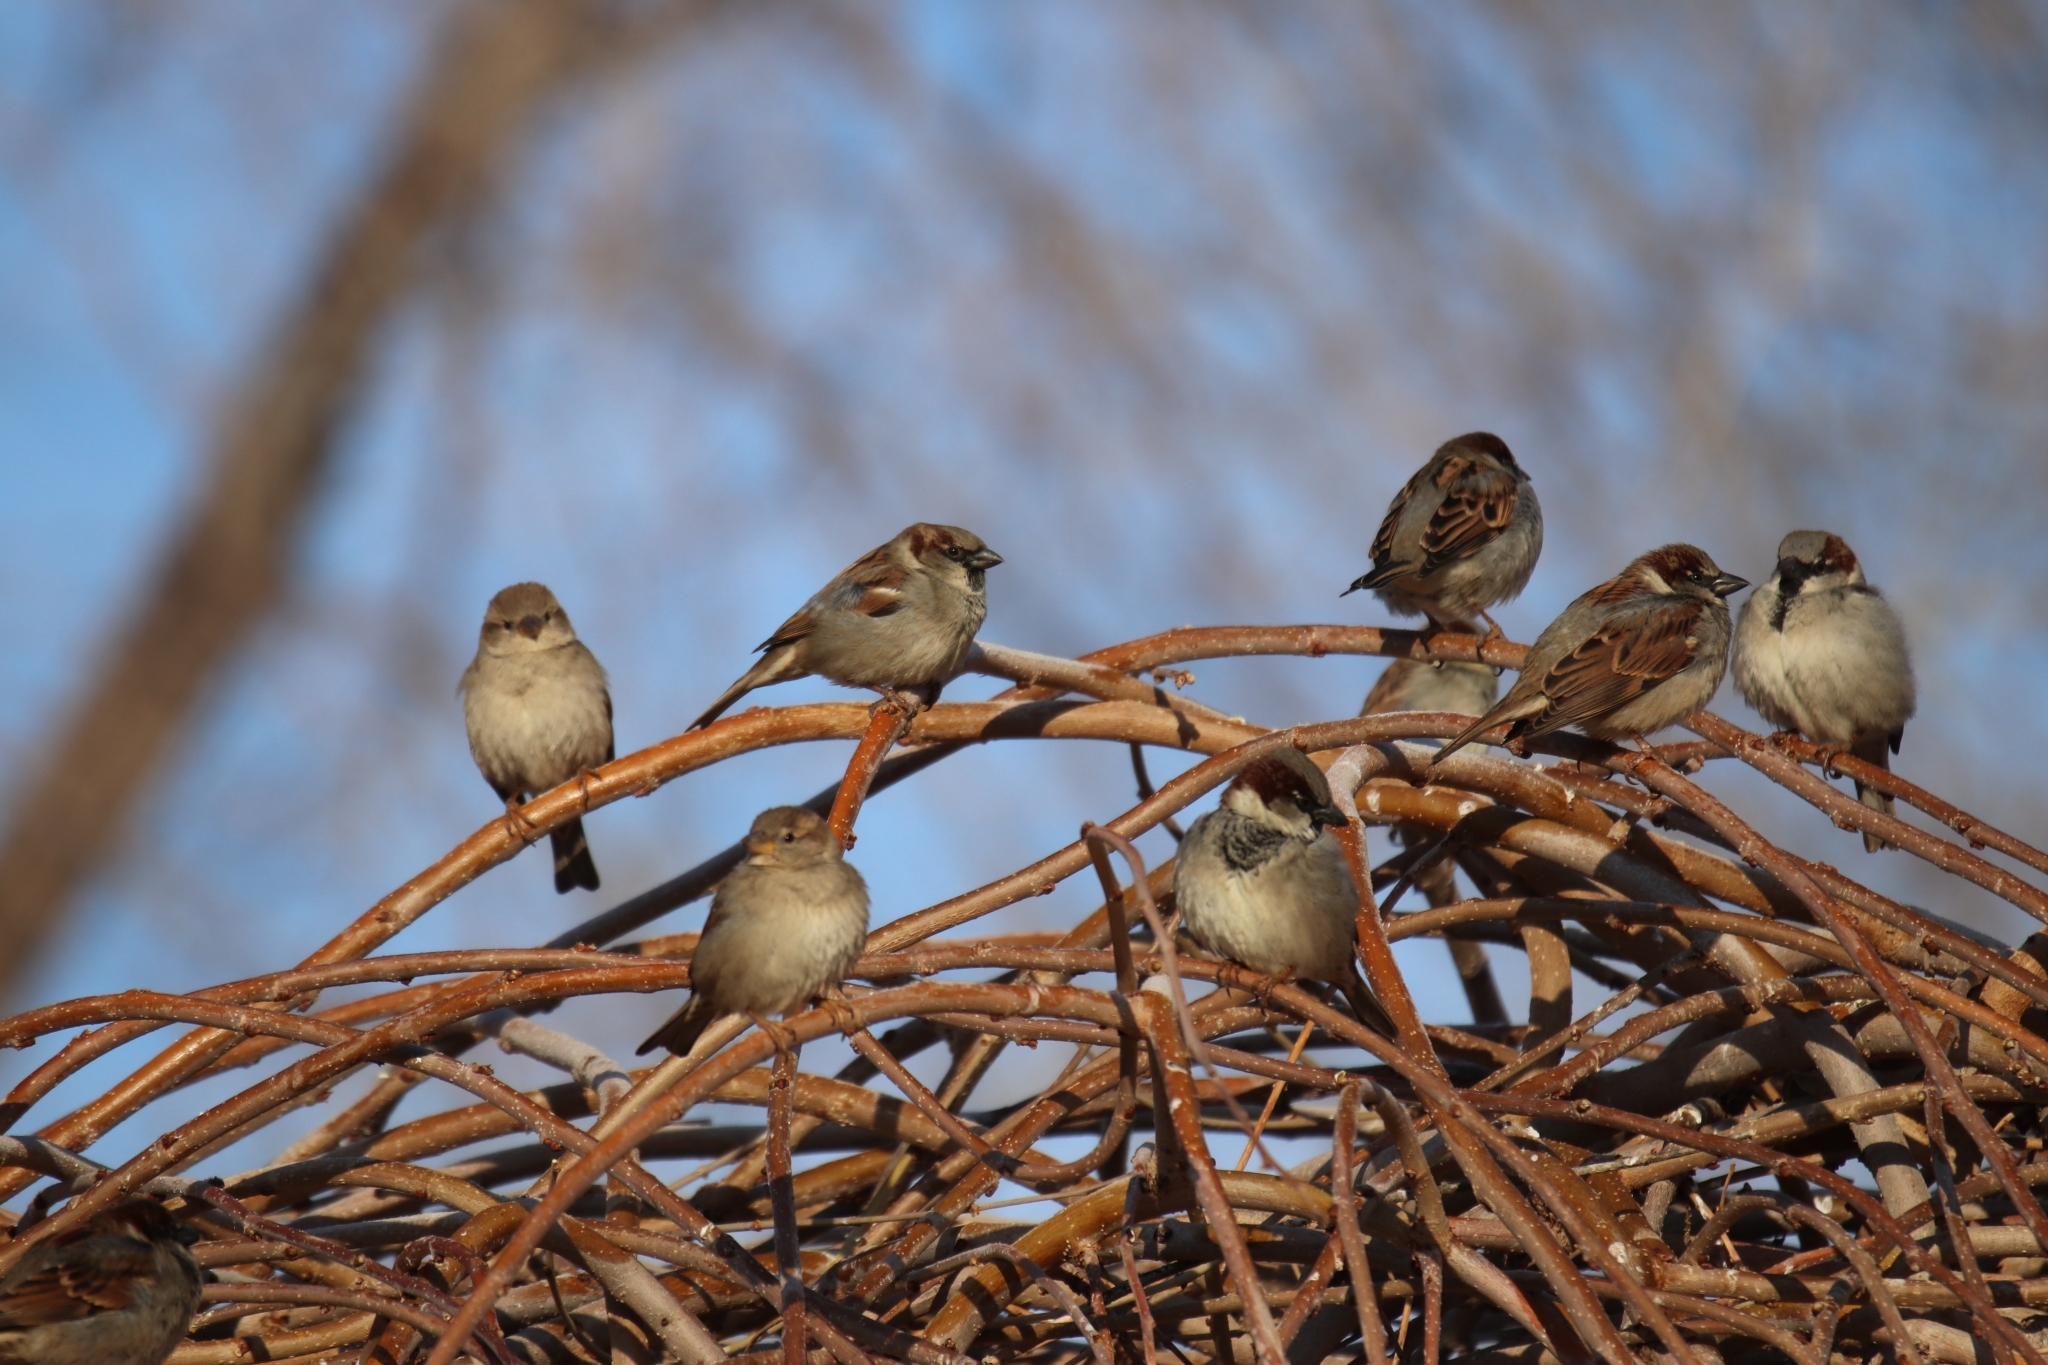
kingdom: Animalia
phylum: Chordata
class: Aves
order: Passeriformes
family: Passeridae
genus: Passer
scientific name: Passer domesticus
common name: House sparrow
